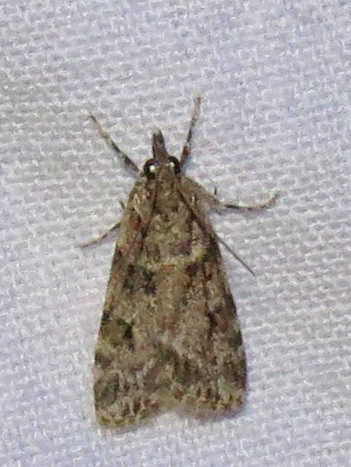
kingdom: Animalia
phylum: Arthropoda
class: Insecta
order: Lepidoptera
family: Crambidae
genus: Scoparia
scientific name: Scoparia biplagialis
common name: Double-striped scoparia moth
